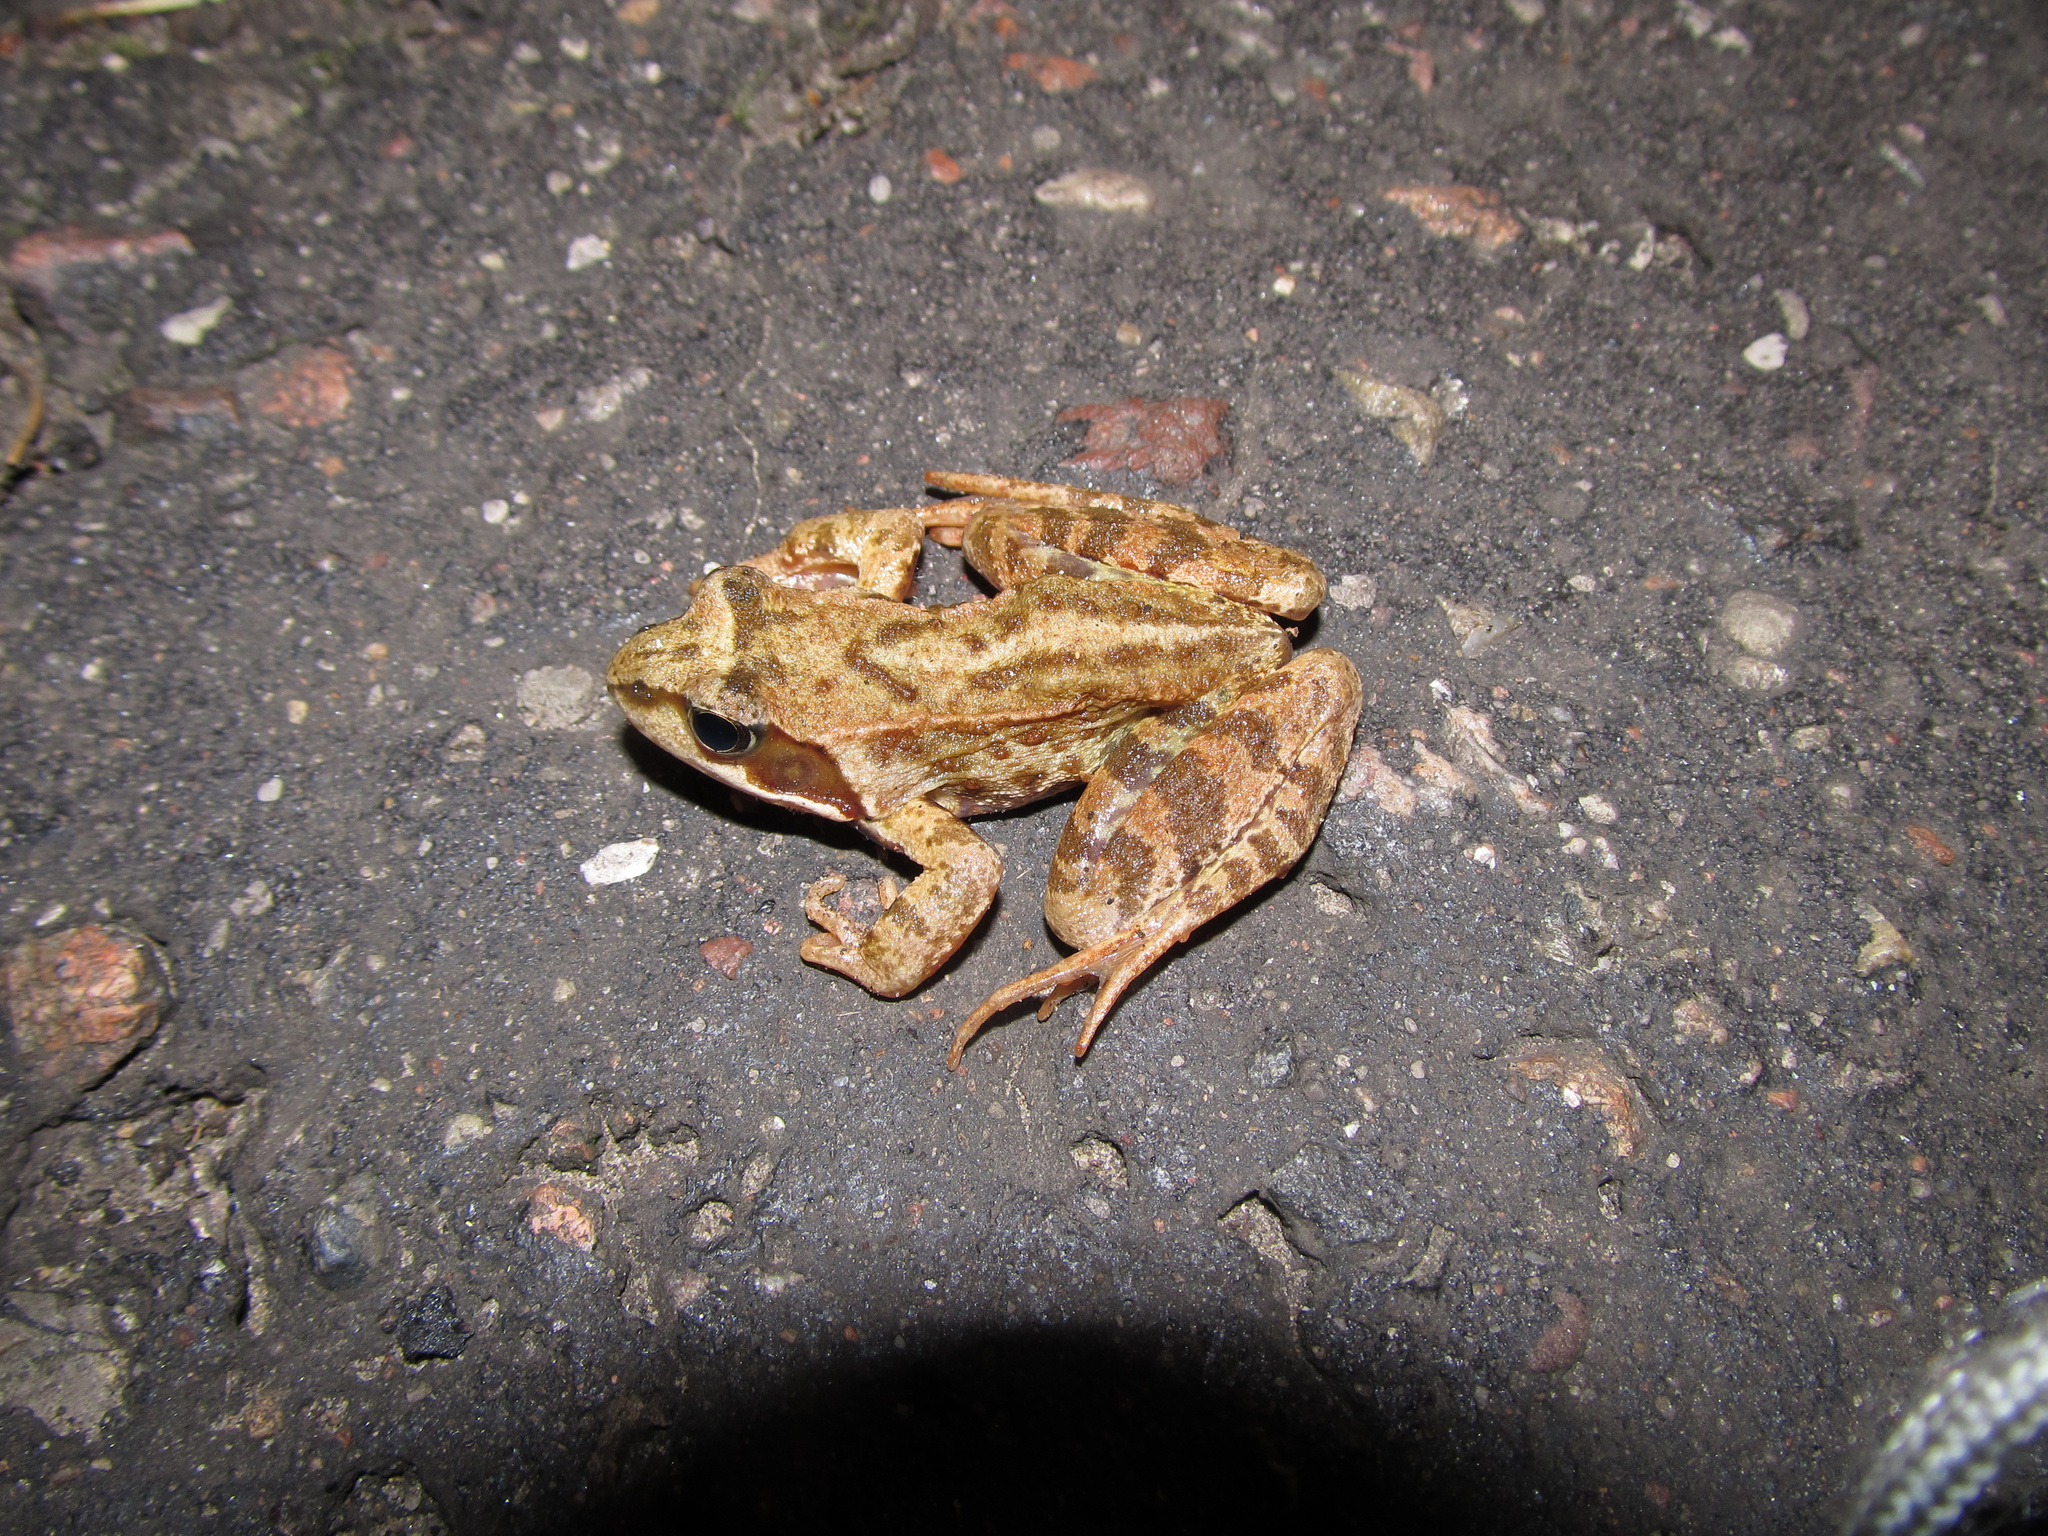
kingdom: Animalia
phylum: Chordata
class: Amphibia
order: Anura
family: Ranidae
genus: Rana
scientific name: Rana temporaria
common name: Common frog
